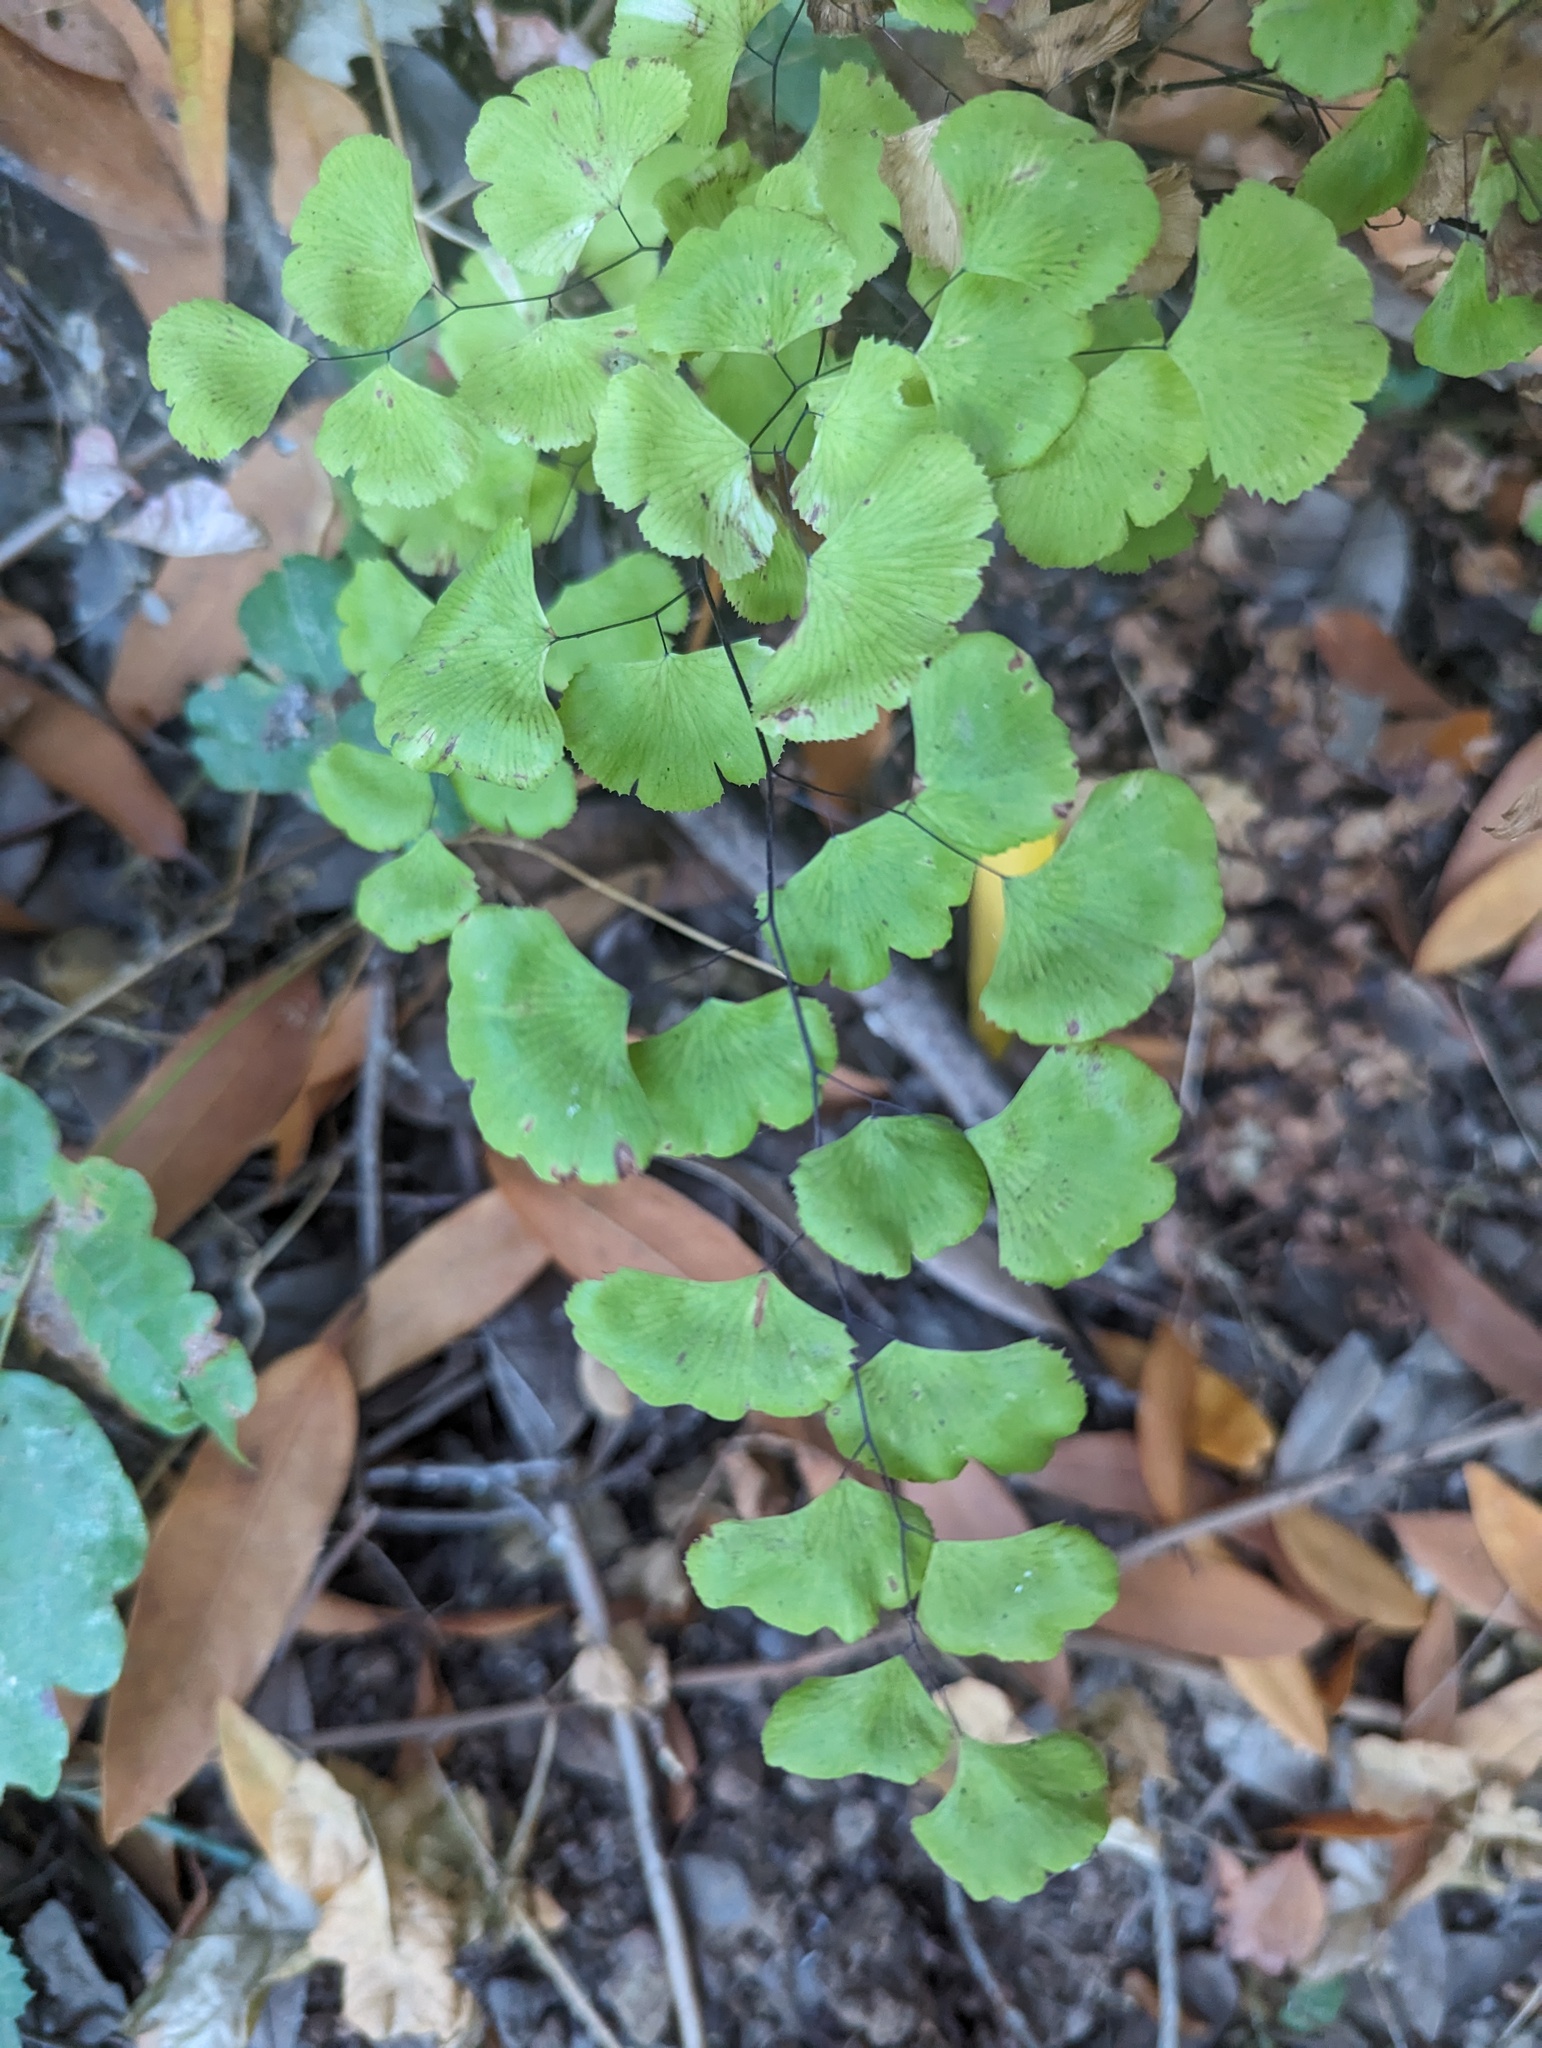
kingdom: Plantae
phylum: Tracheophyta
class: Polypodiopsida
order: Polypodiales
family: Pteridaceae
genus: Adiantum
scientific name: Adiantum jordanii
